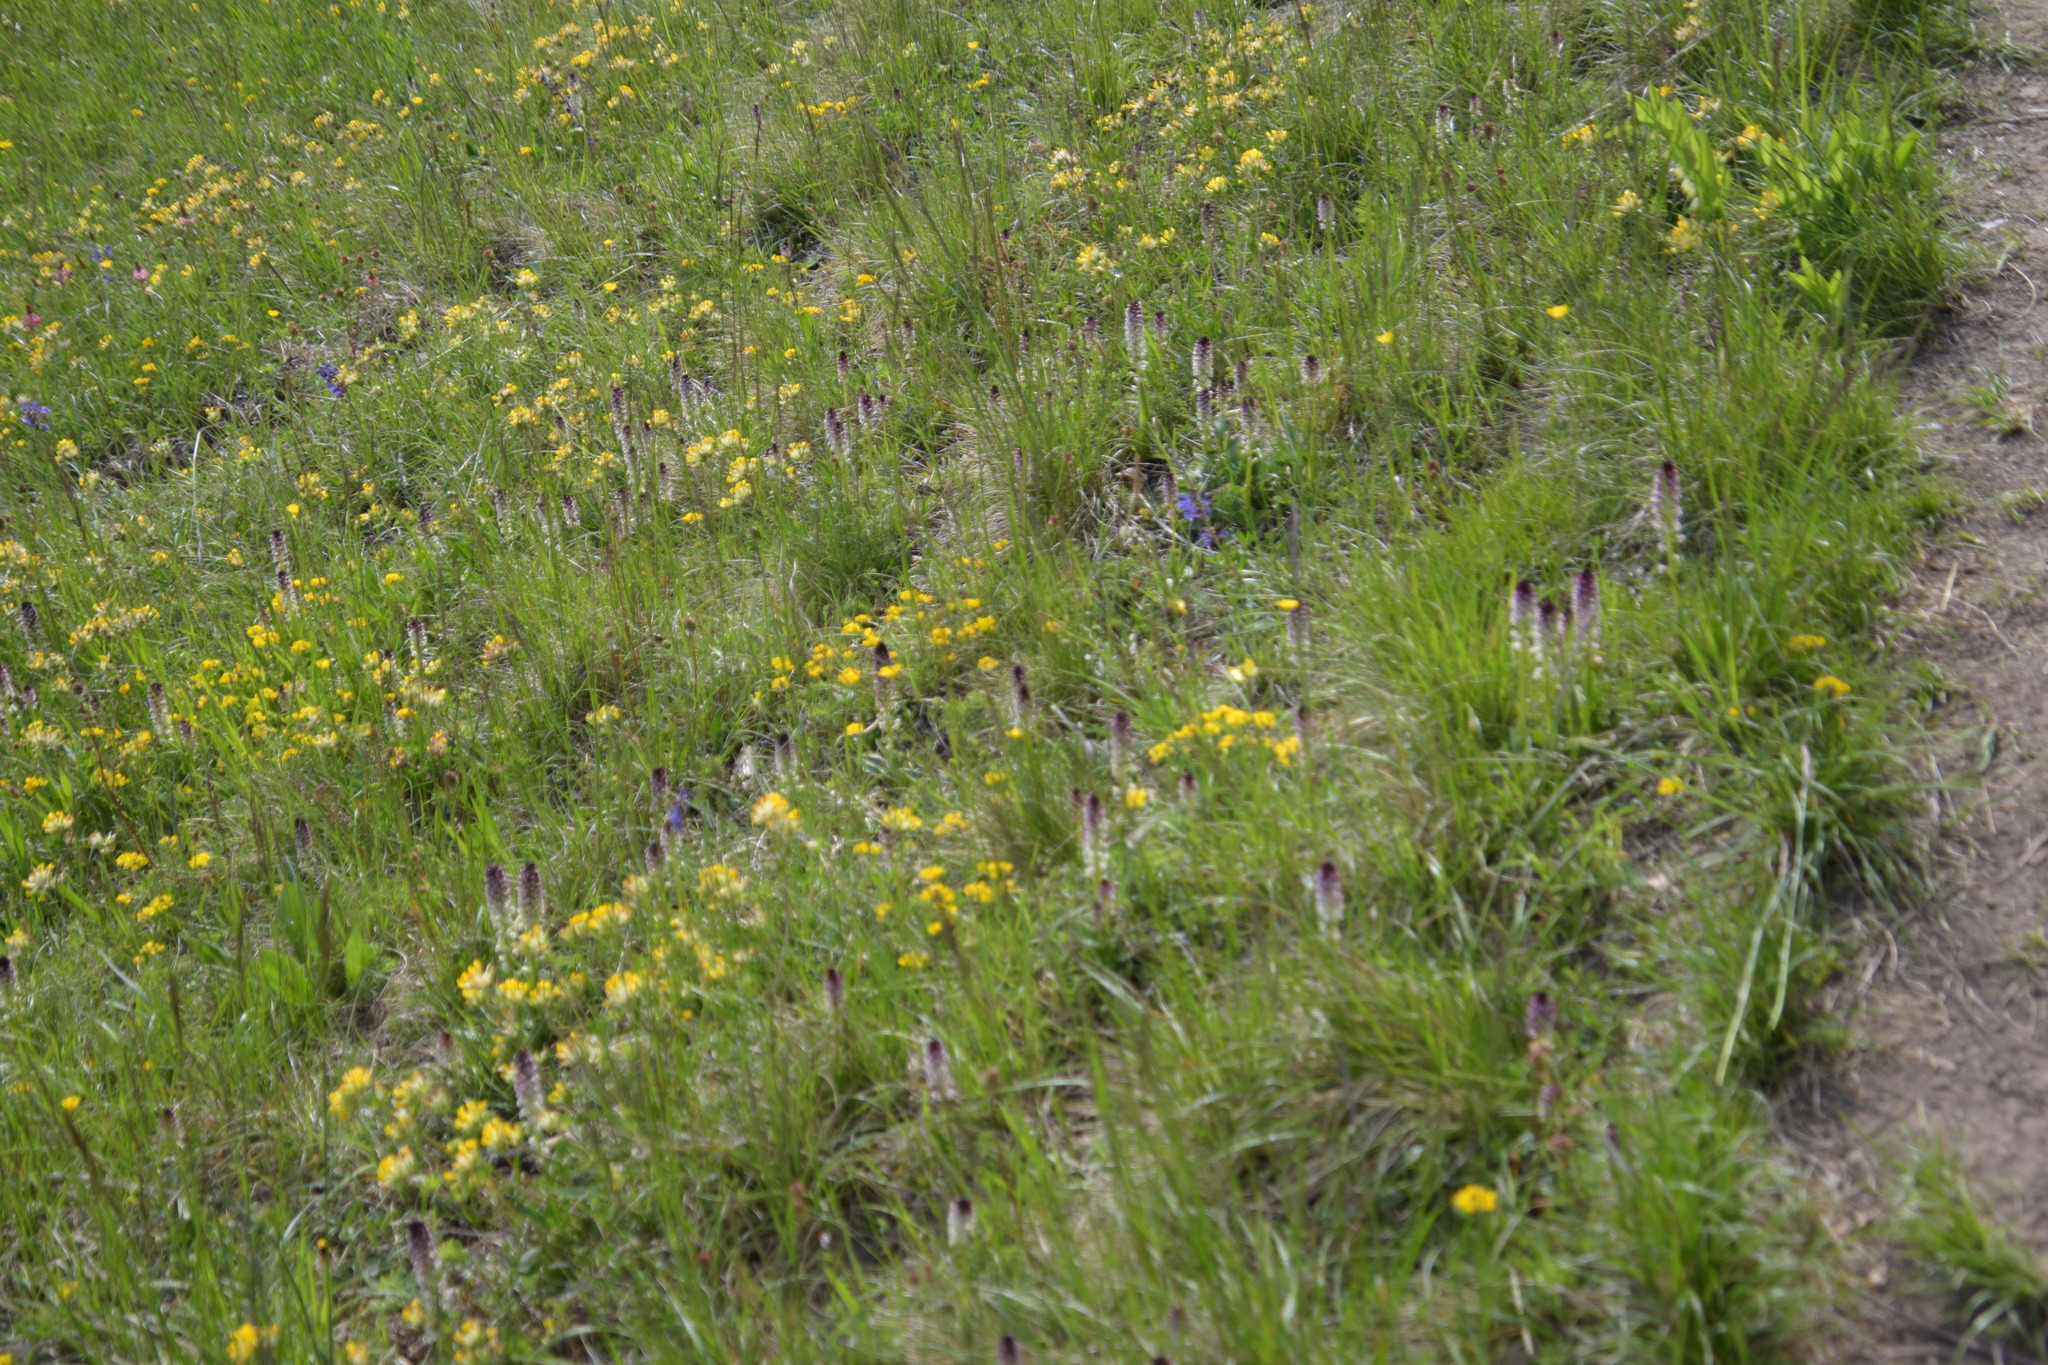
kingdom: Plantae
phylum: Tracheophyta
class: Liliopsida
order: Asparagales
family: Orchidaceae
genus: Neotinea
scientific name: Neotinea ustulata
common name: Burnt orchid
